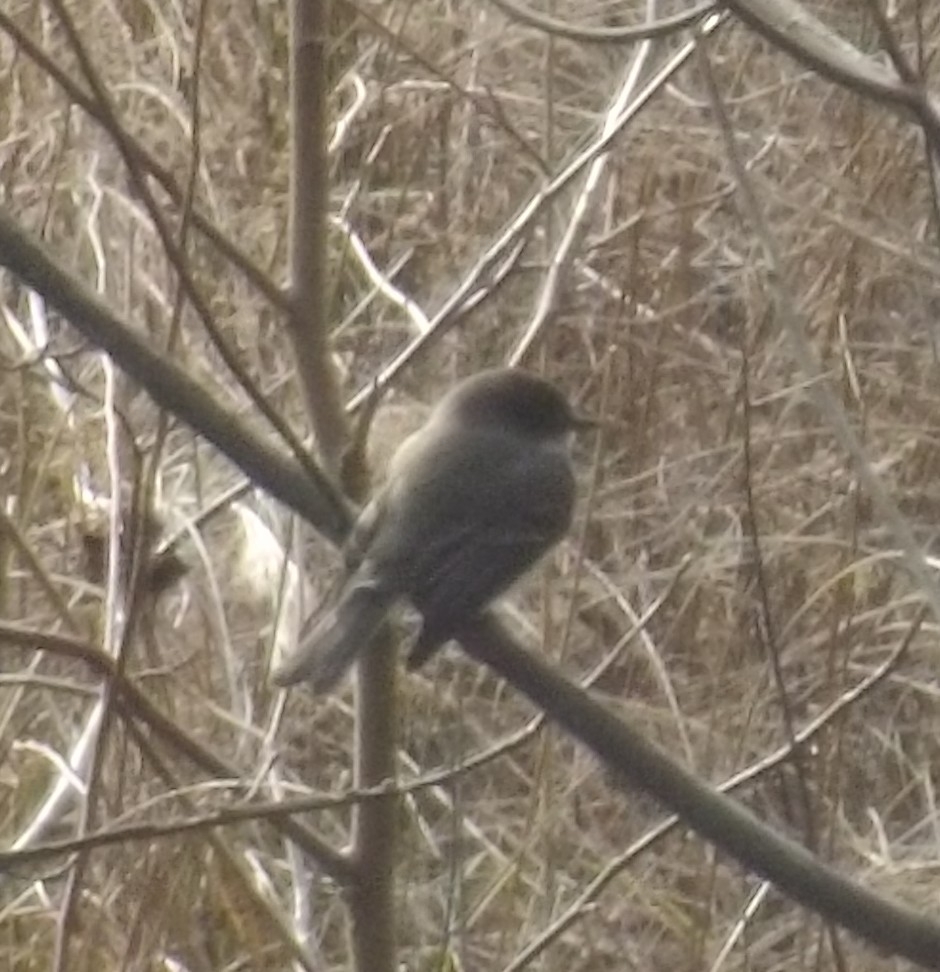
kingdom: Animalia
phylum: Chordata
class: Aves
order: Passeriformes
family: Tyrannidae
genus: Sayornis
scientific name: Sayornis phoebe
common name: Eastern phoebe
